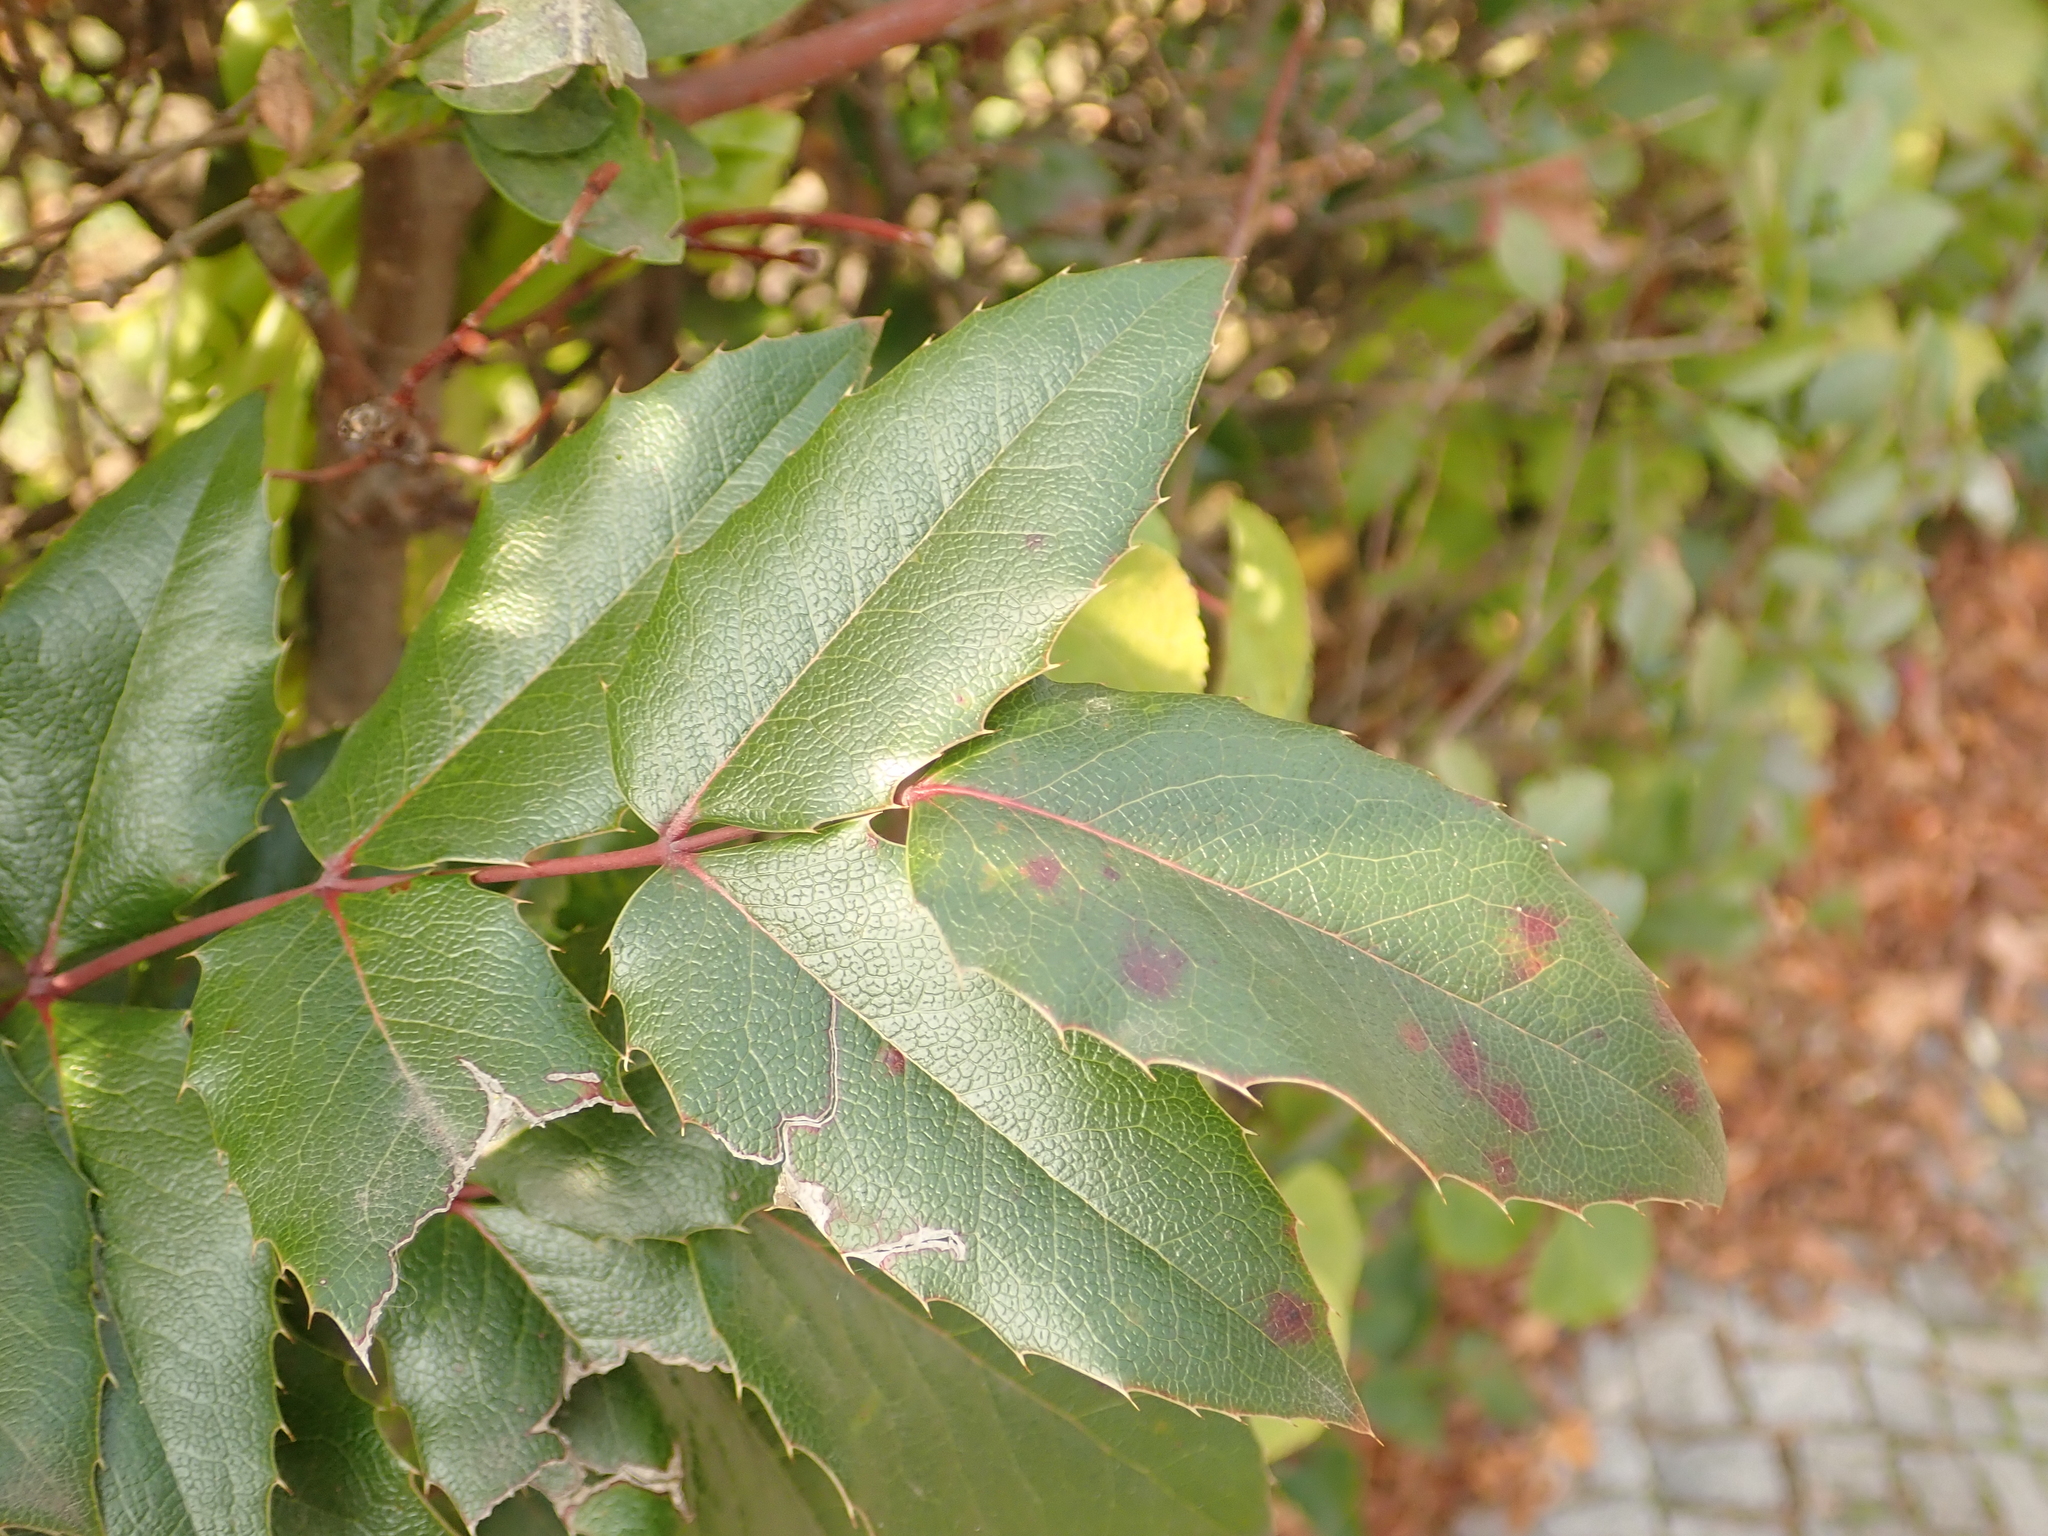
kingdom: Plantae
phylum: Tracheophyta
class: Magnoliopsida
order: Ranunculales
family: Berberidaceae
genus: Mahonia
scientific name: Mahonia aquifolium
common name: Oregon-grape
